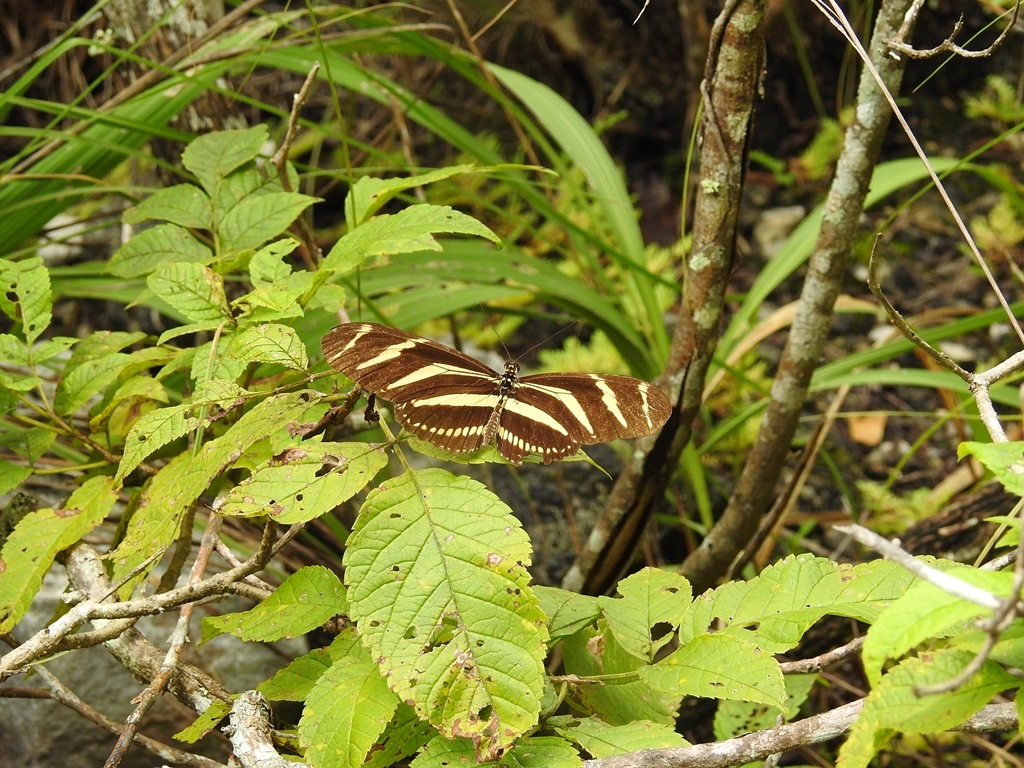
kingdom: Animalia
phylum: Arthropoda
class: Insecta
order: Lepidoptera
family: Nymphalidae
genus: Heliconius
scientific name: Heliconius charithonia
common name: Zebra long wing
